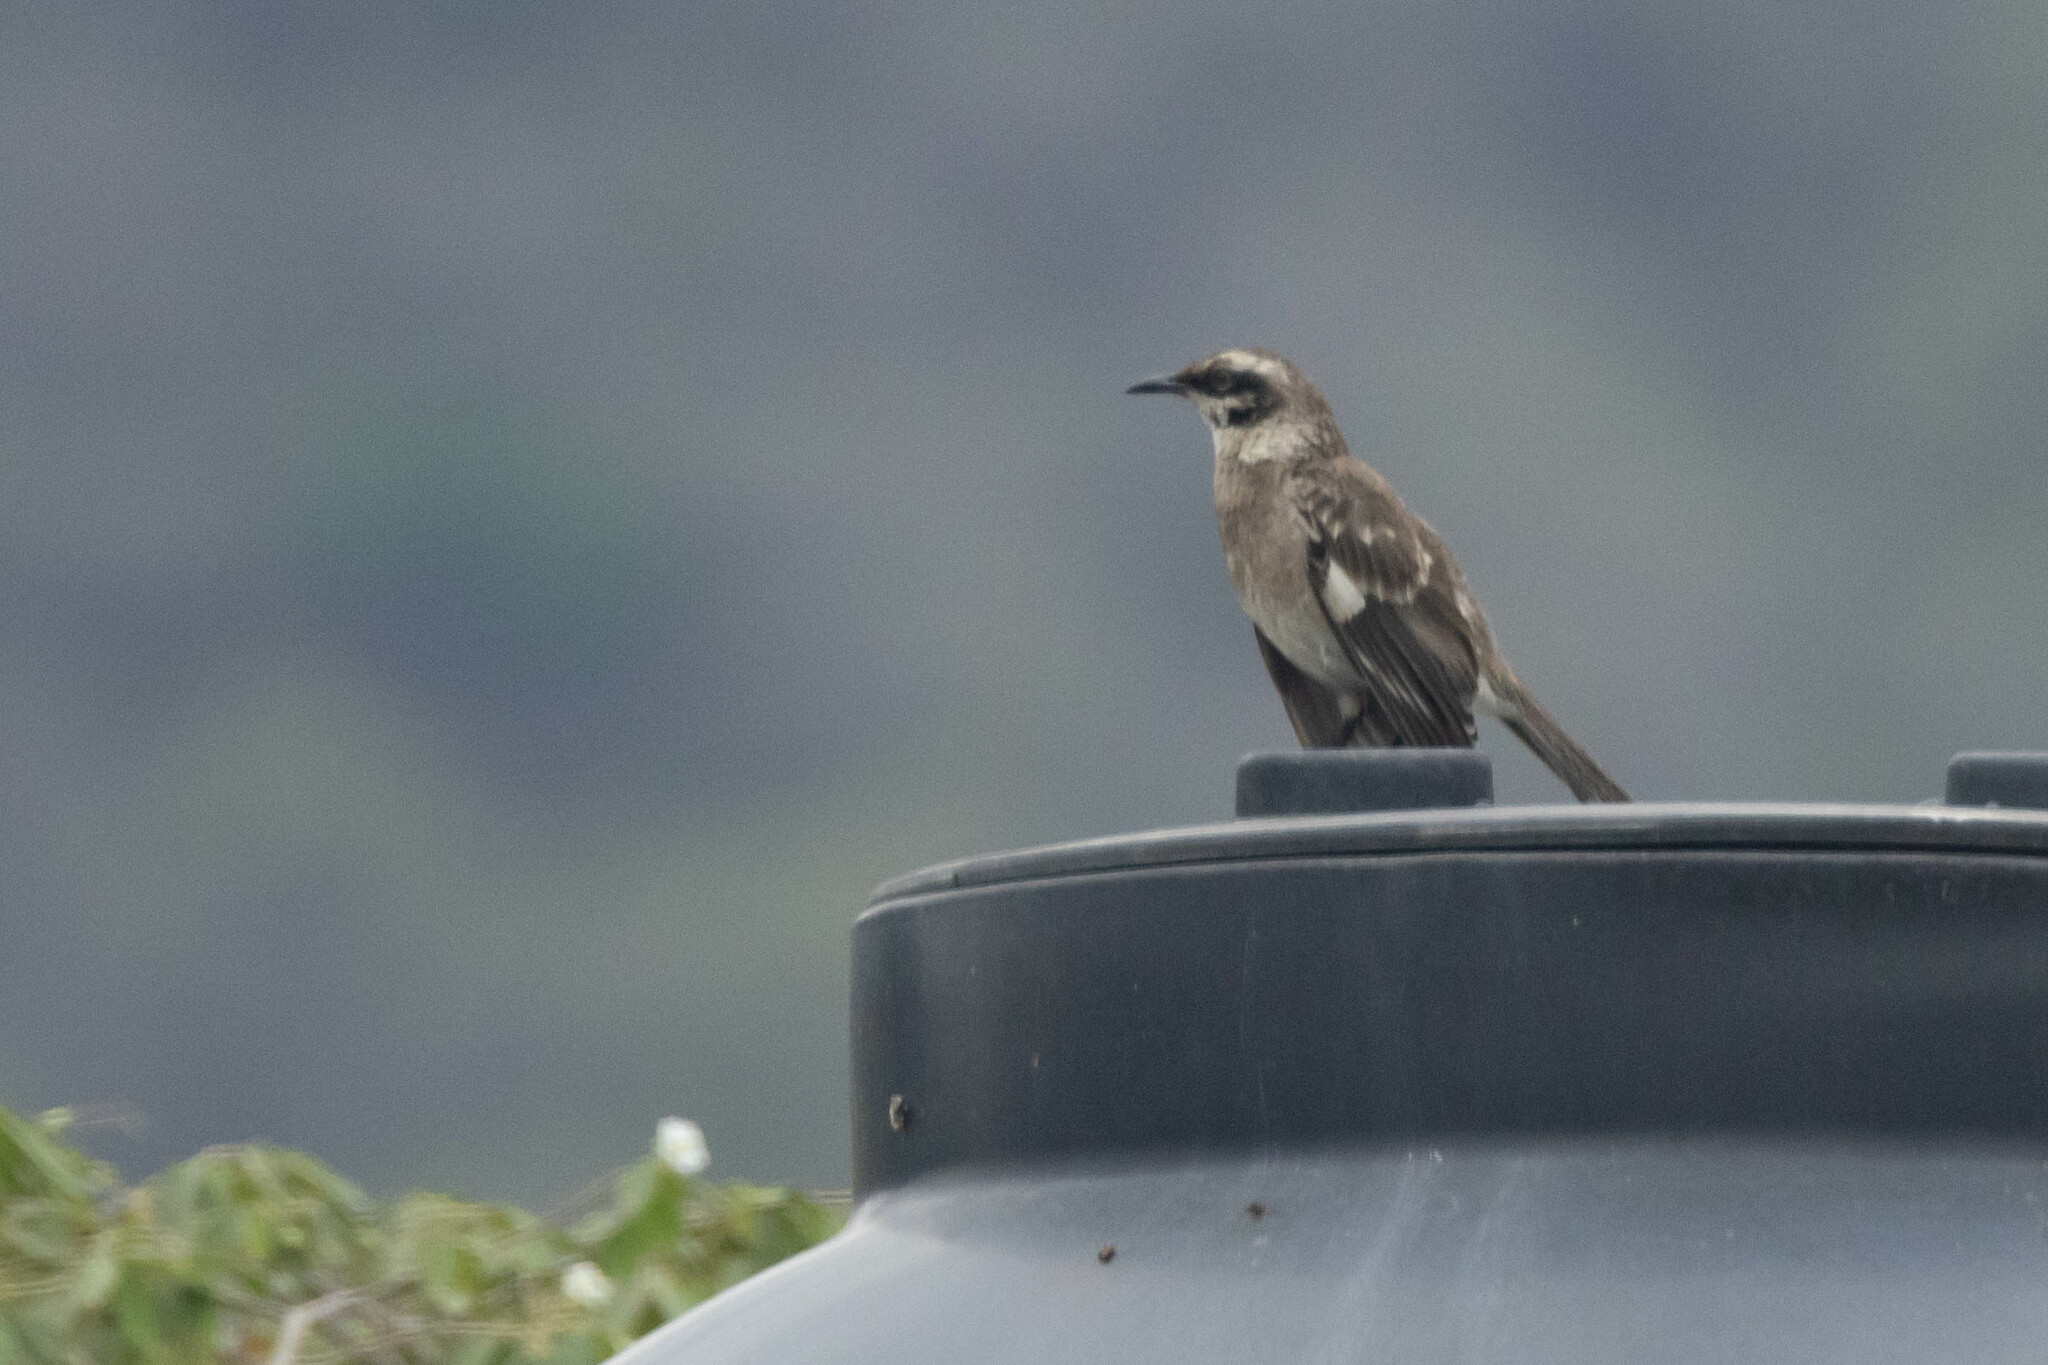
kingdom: Animalia
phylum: Chordata
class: Aves
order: Passeriformes
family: Mimidae
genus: Mimus
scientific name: Mimus longicaudatus
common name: Long-tailed mockingbird
